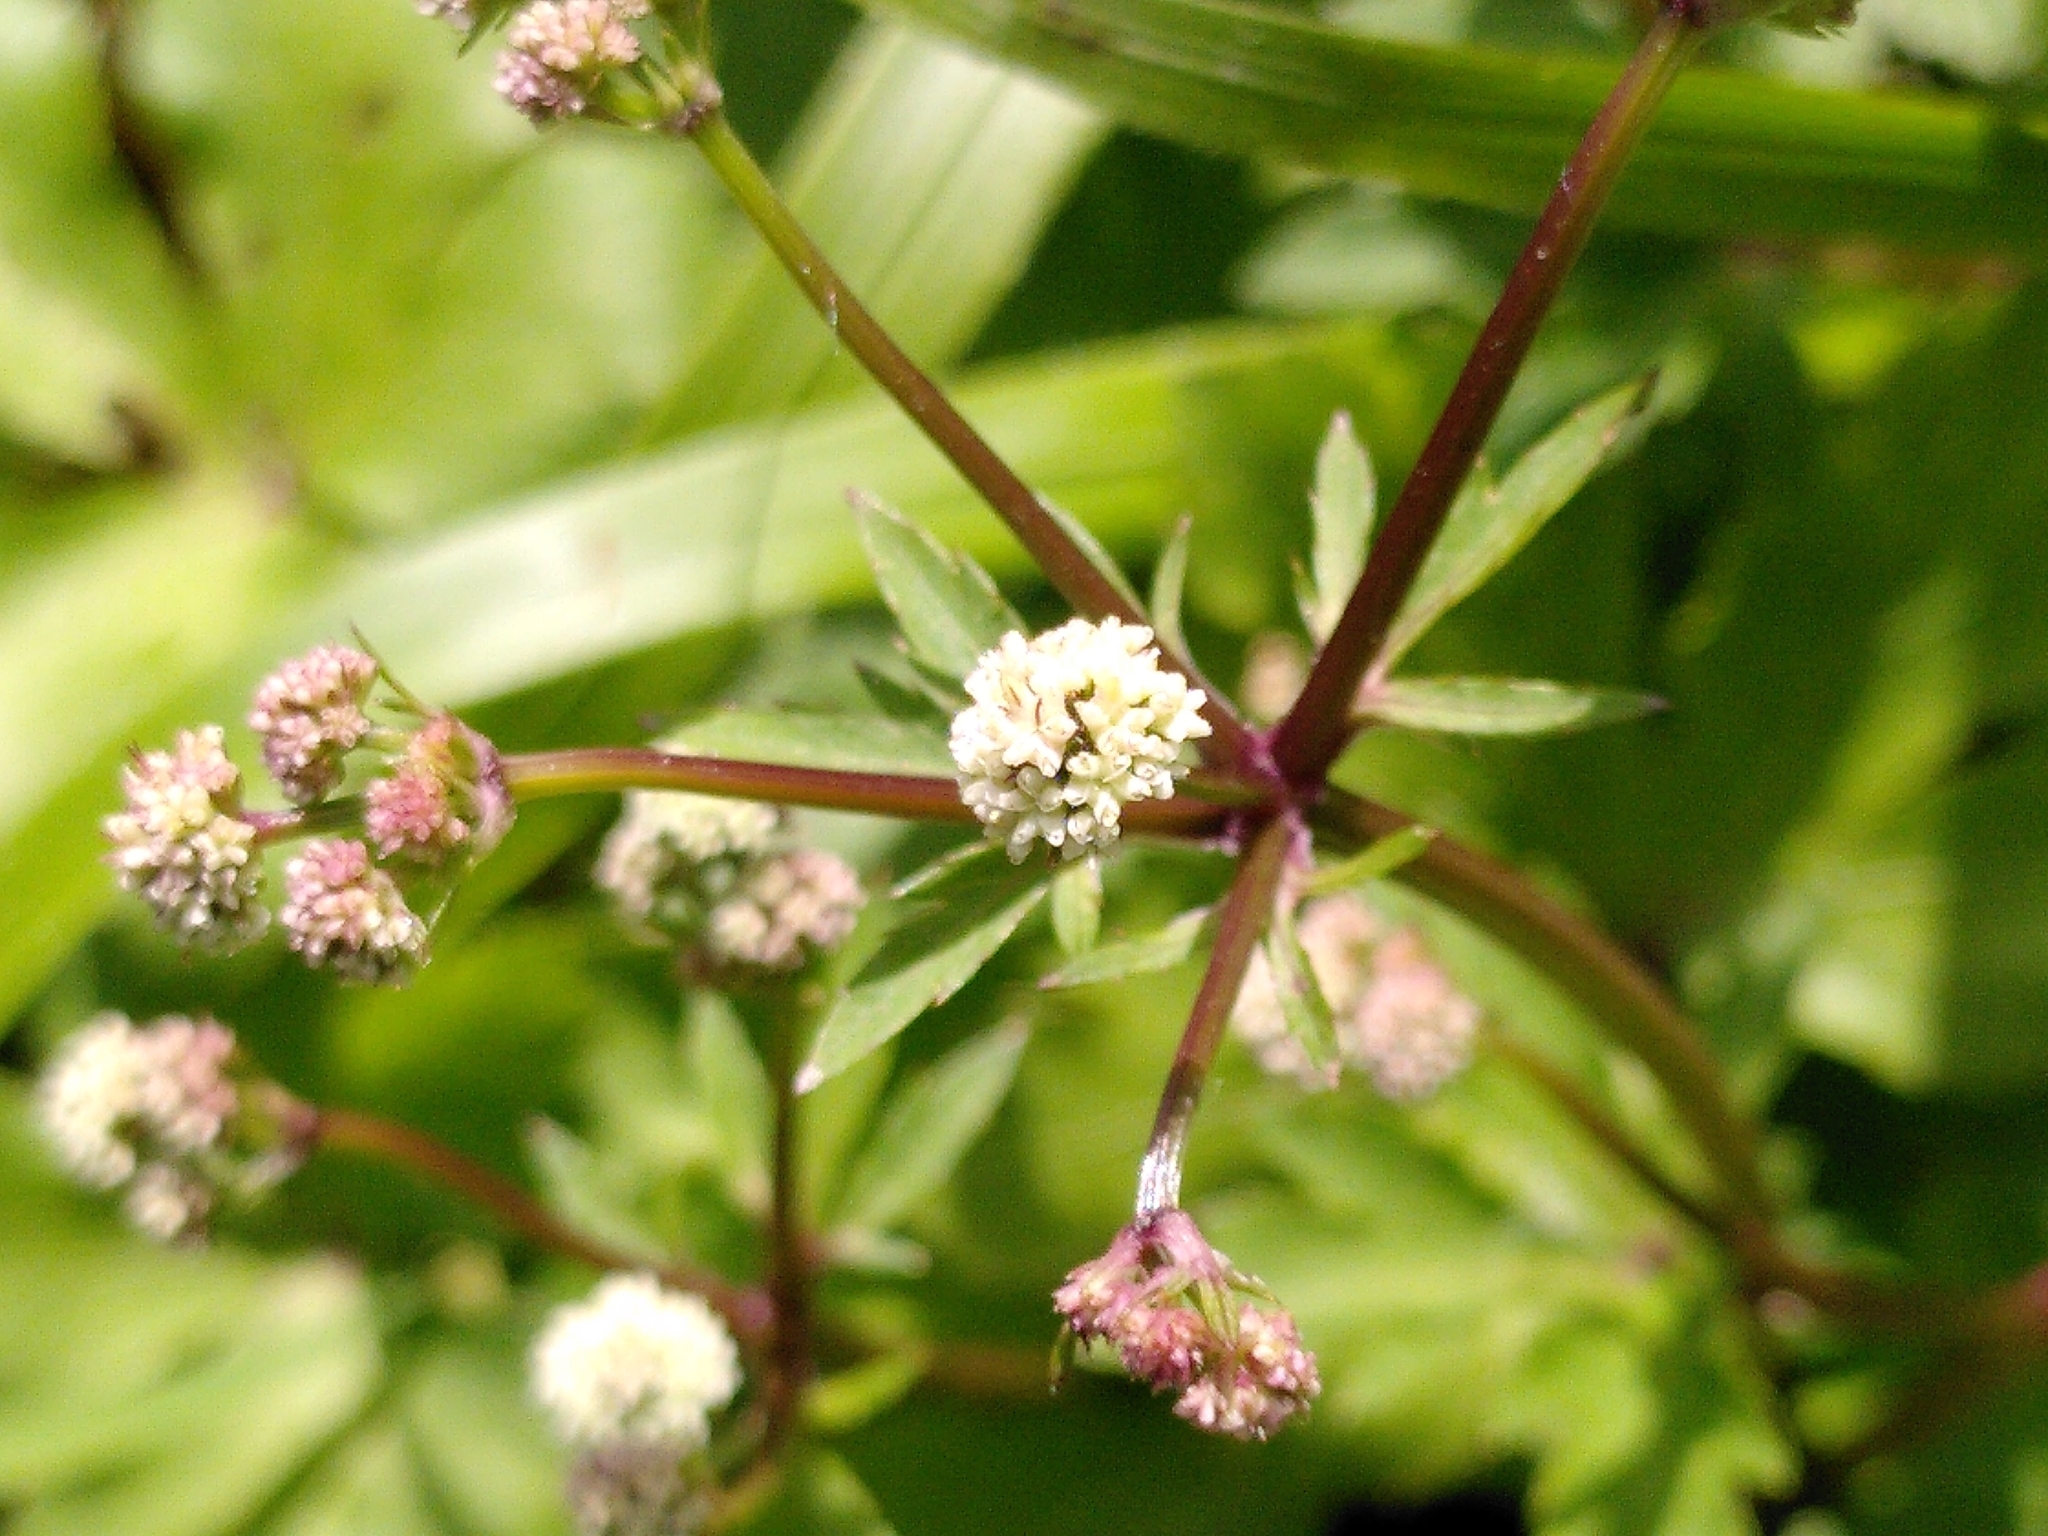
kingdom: Plantae
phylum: Tracheophyta
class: Magnoliopsida
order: Apiales
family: Apiaceae
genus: Sanicula
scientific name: Sanicula europaea
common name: Sanicle
